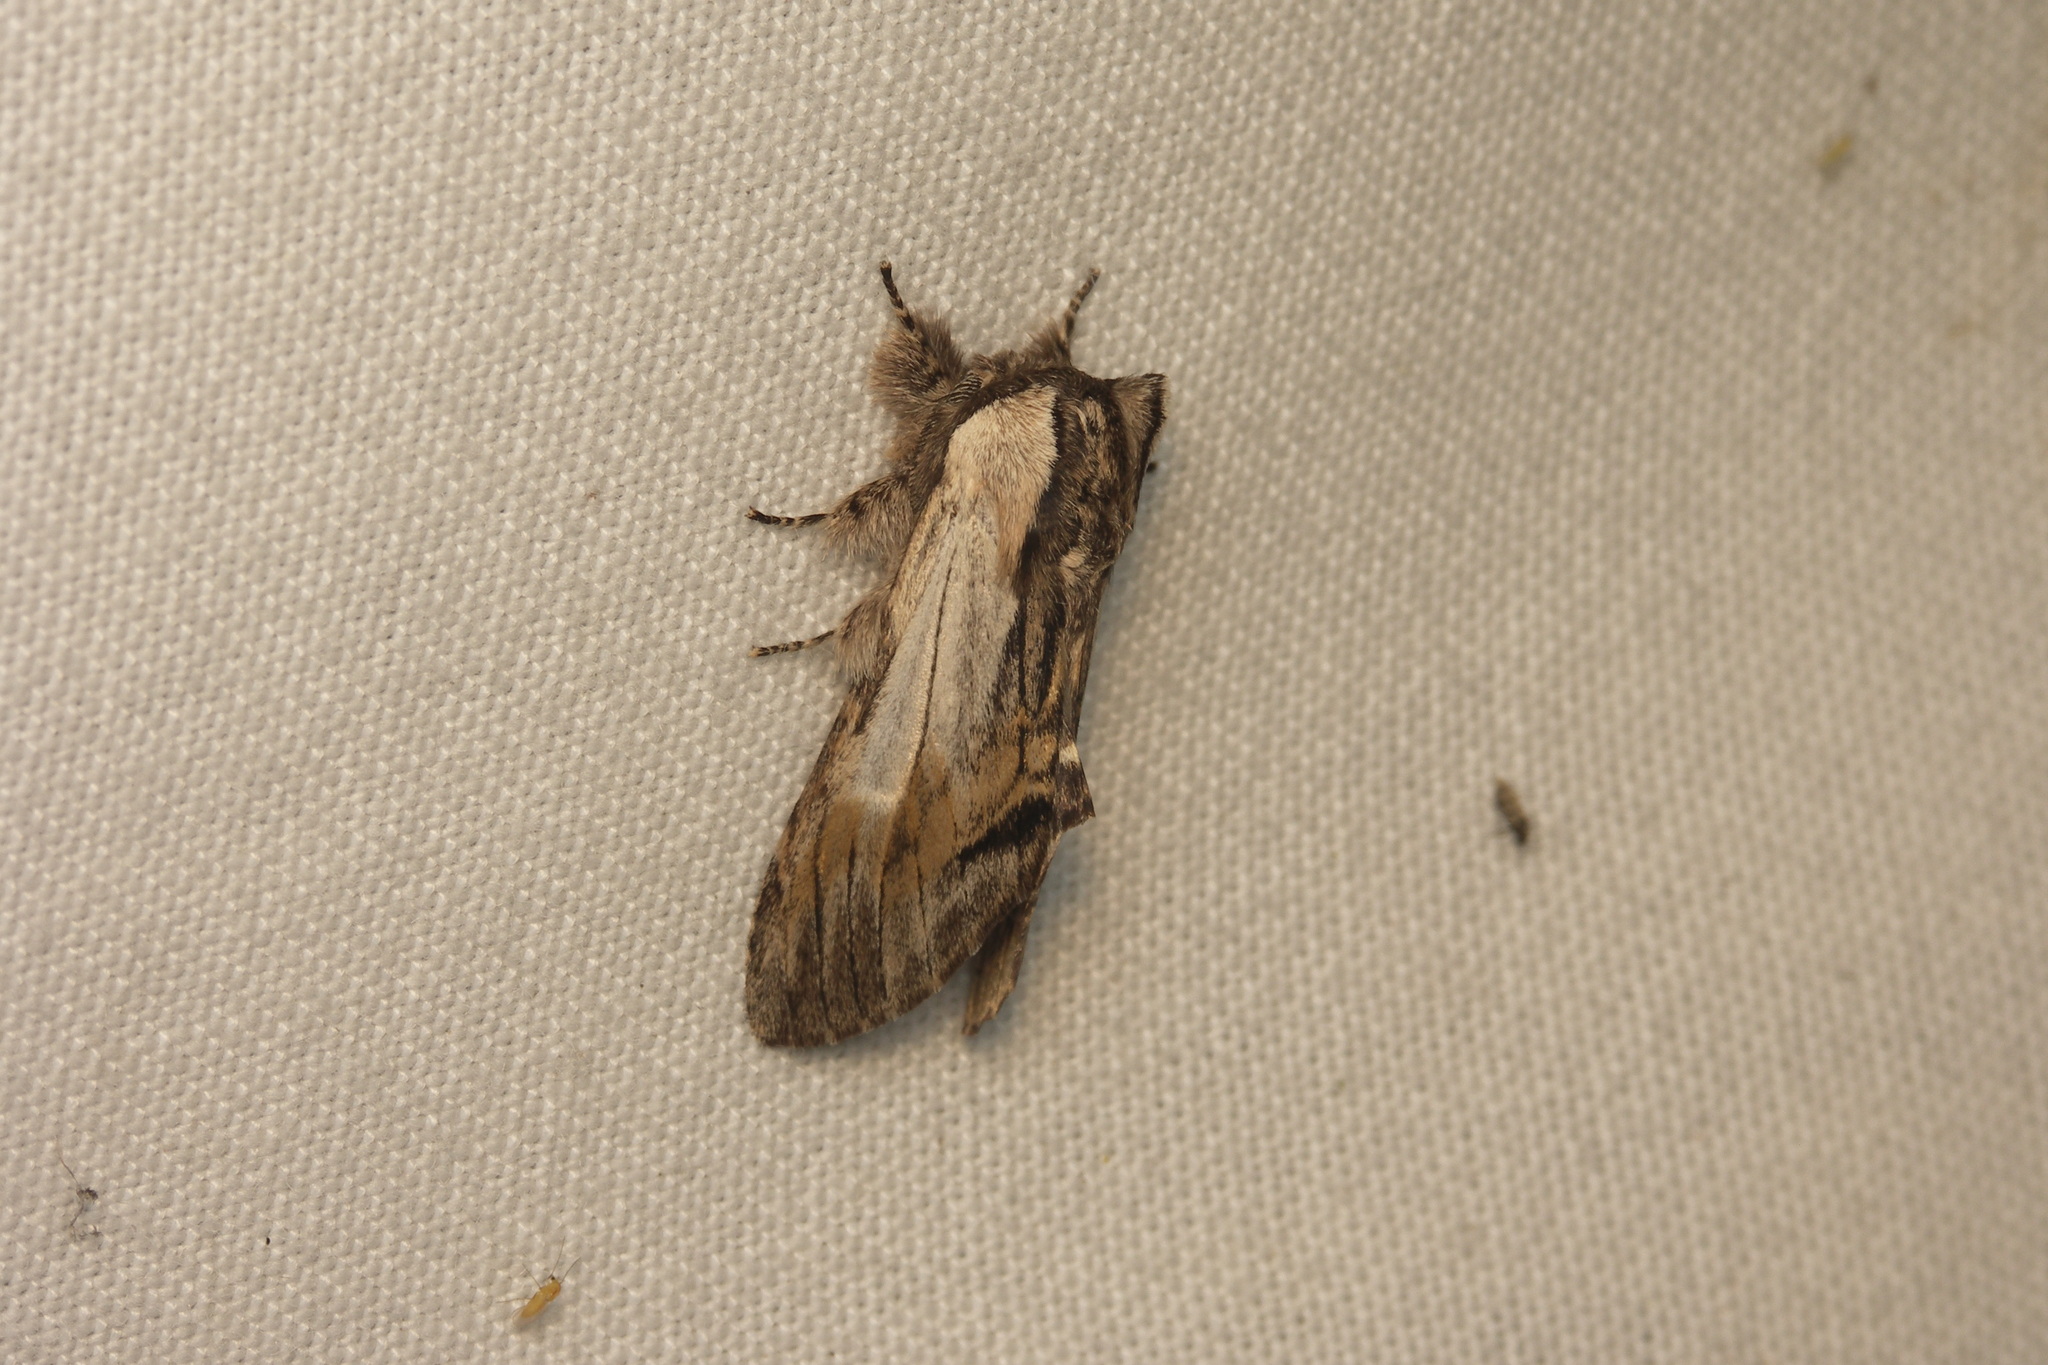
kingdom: Animalia
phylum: Arthropoda
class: Insecta
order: Lepidoptera
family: Notodontidae
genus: Harpyia
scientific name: Harpyia milhauseri
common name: Tawny prominent
